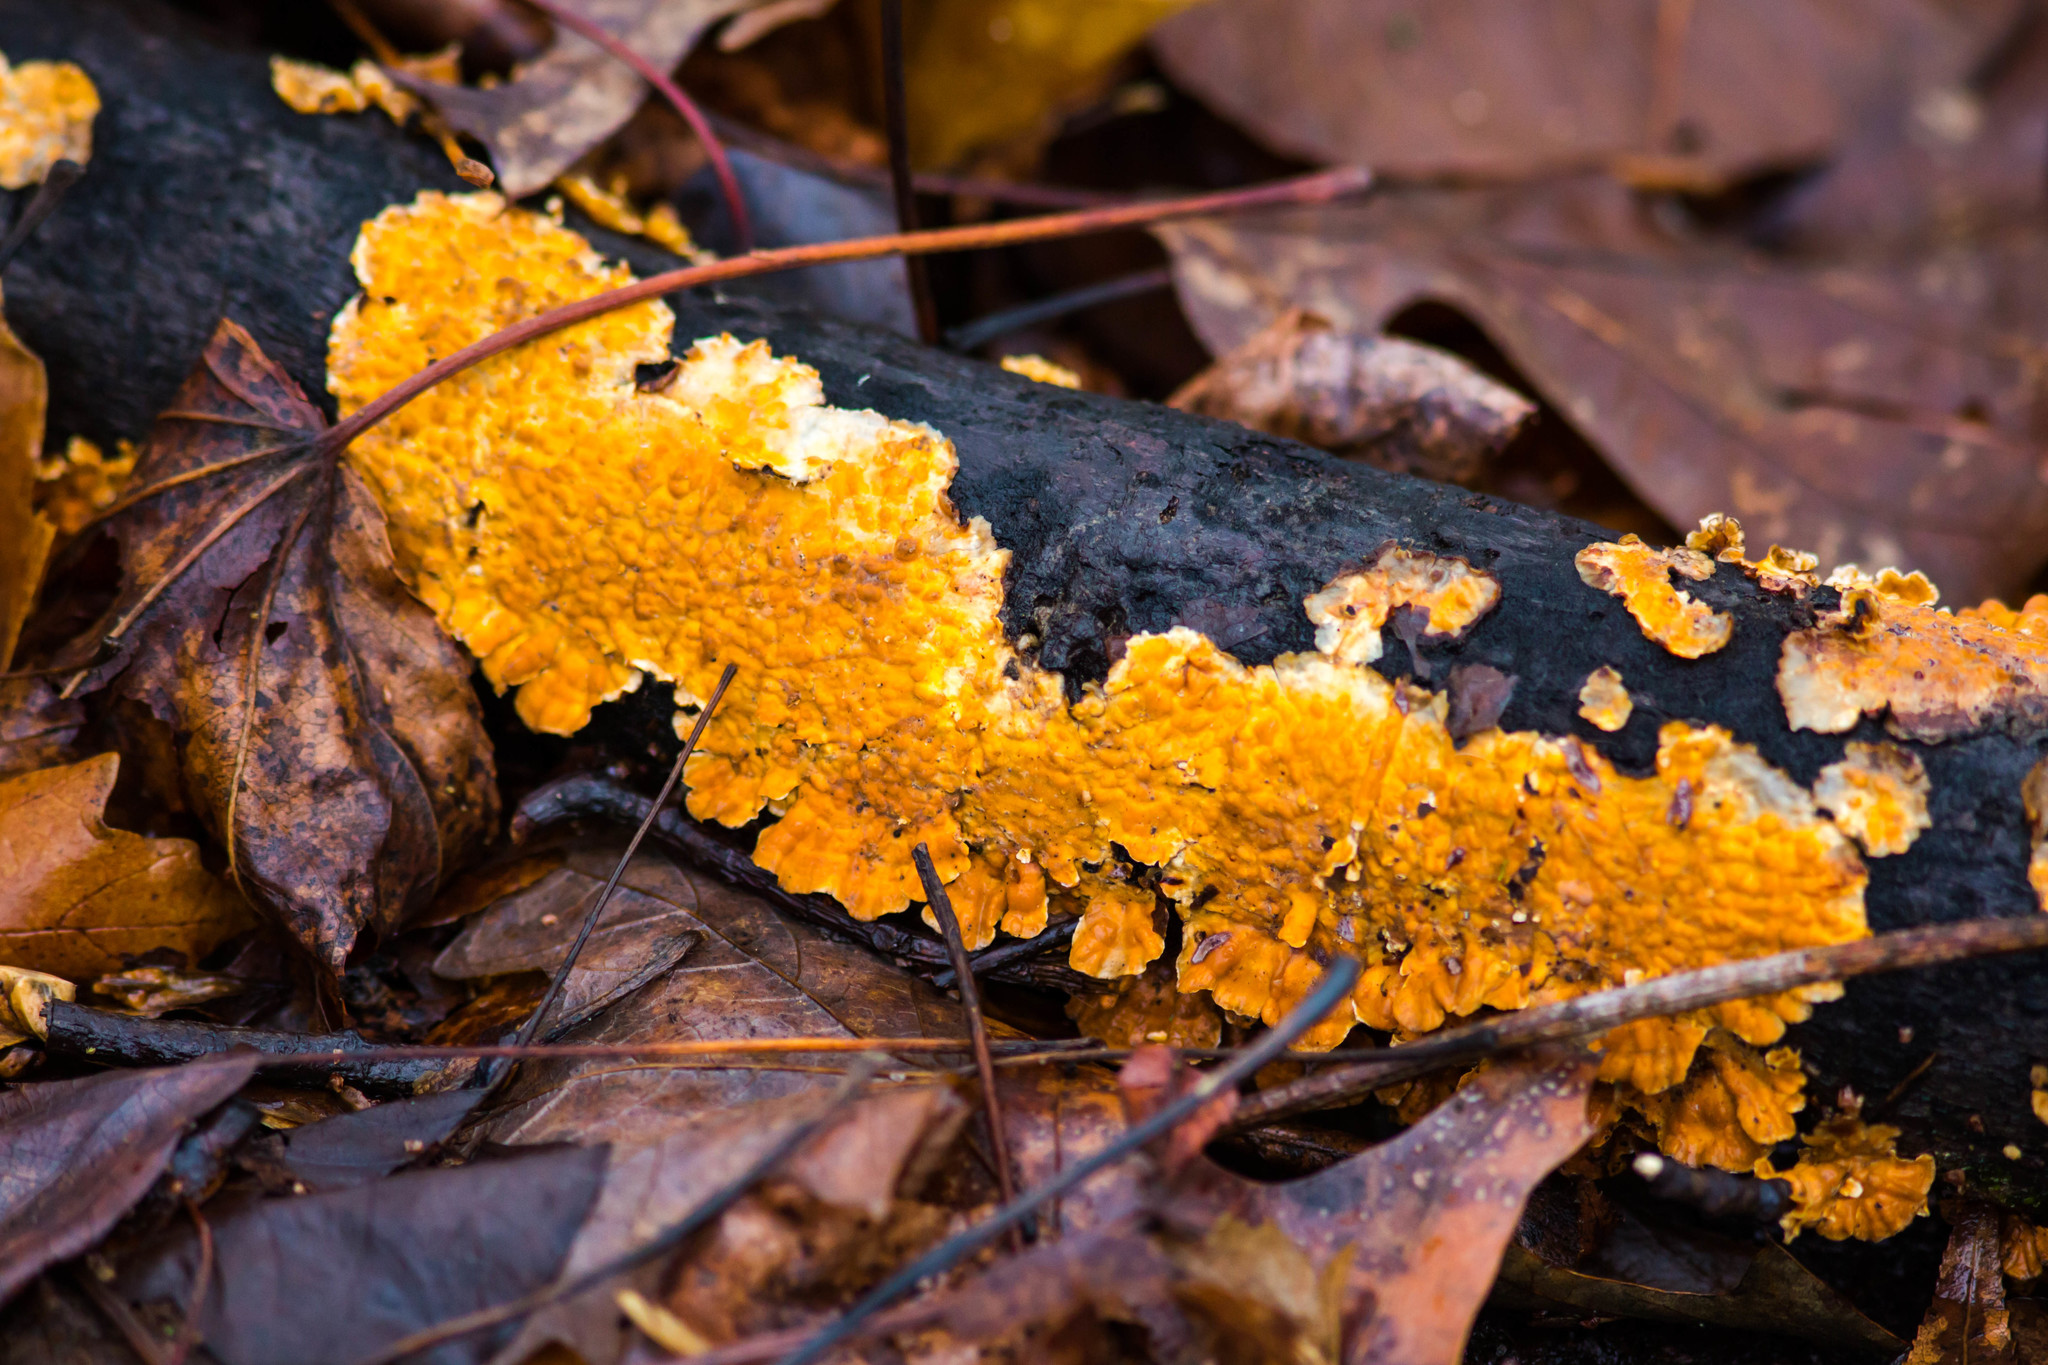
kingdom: Fungi
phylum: Basidiomycota
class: Agaricomycetes
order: Russulales
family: Stereaceae
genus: Stereum
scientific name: Stereum complicatum
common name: Crowded parchment
